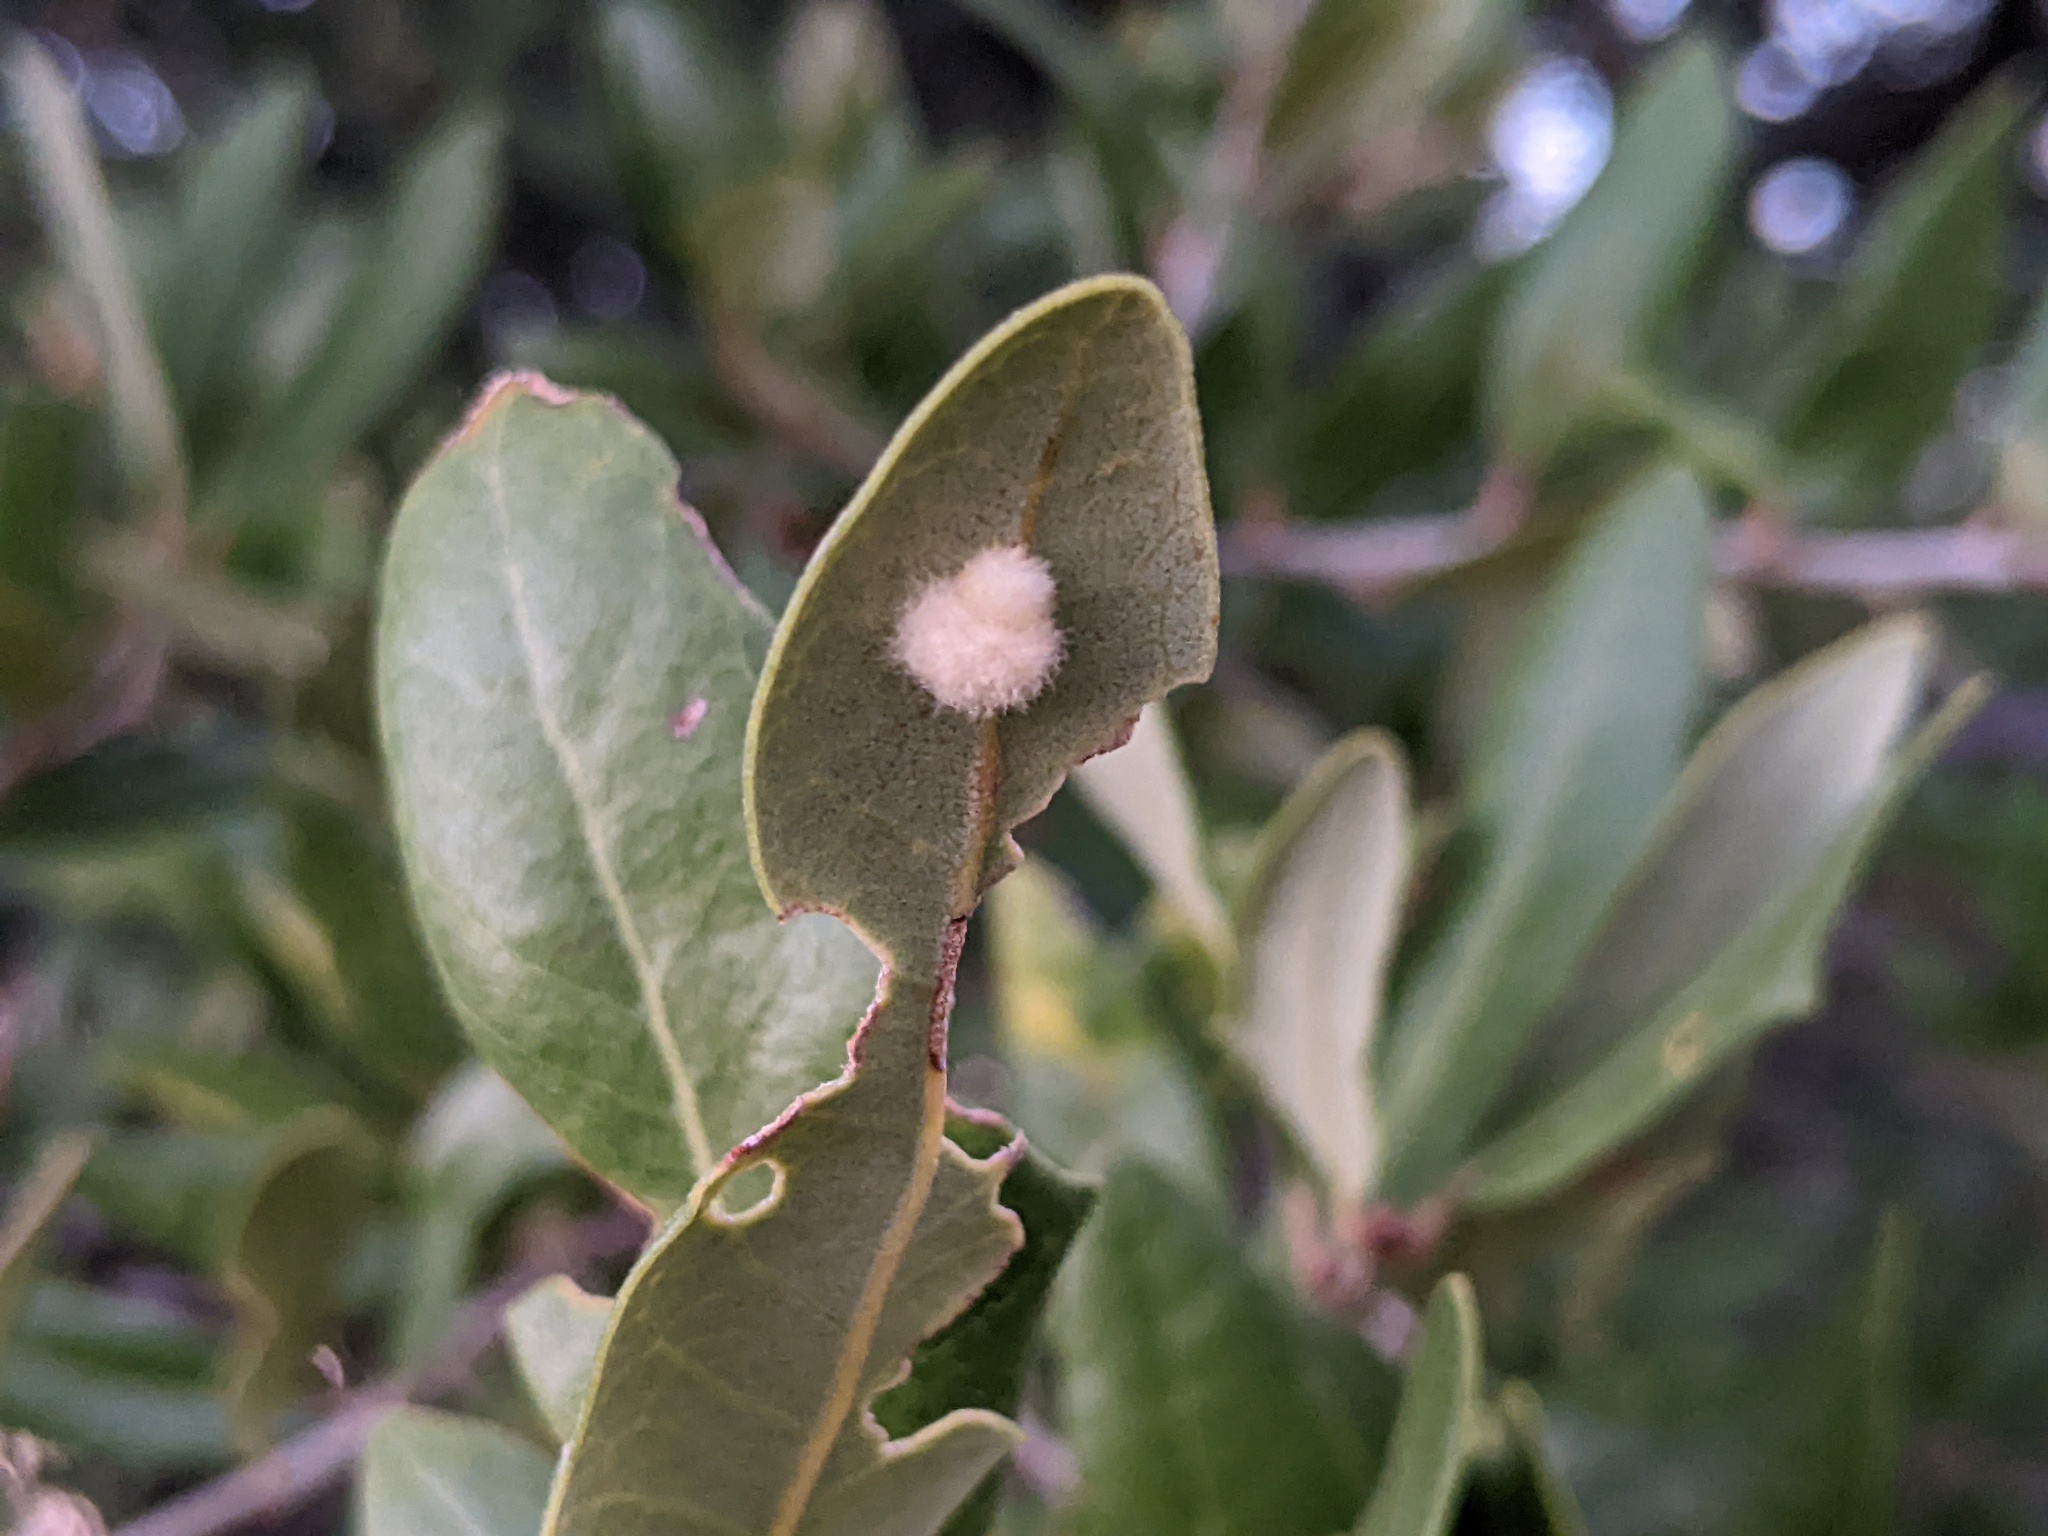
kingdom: Animalia
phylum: Arthropoda
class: Insecta
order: Hymenoptera
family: Cynipidae
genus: Andricus
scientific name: Andricus Druon quercuslanigerum
